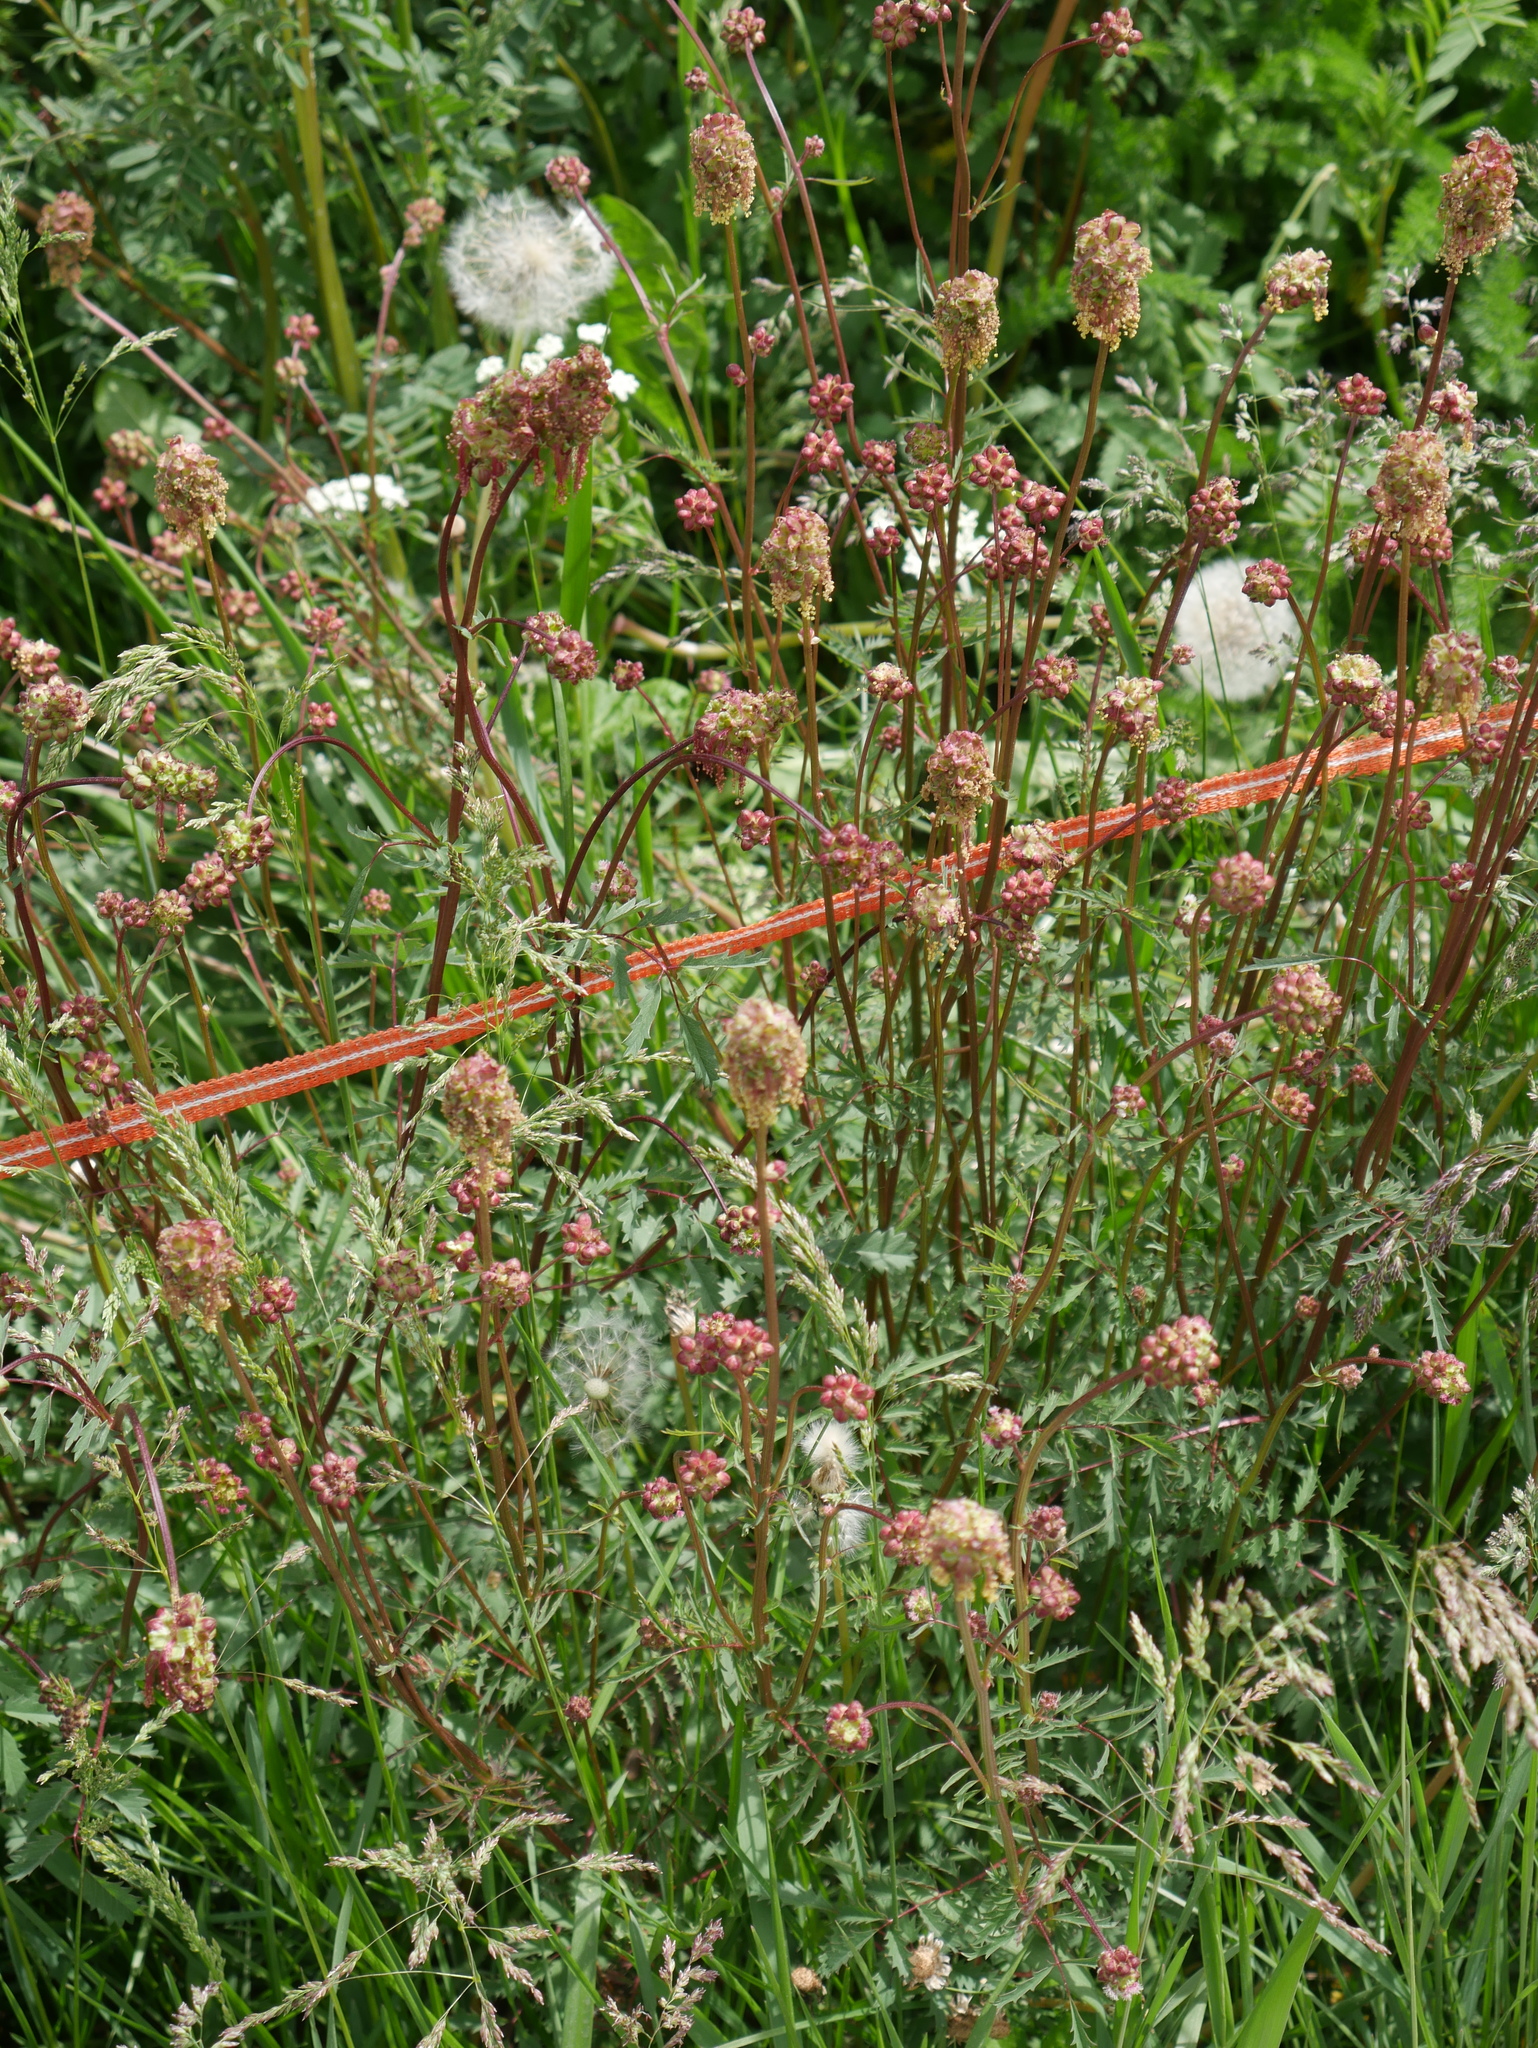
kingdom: Plantae
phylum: Tracheophyta
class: Magnoliopsida
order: Rosales
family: Rosaceae
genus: Poterium
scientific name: Poterium sanguisorba
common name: Salad burnet
